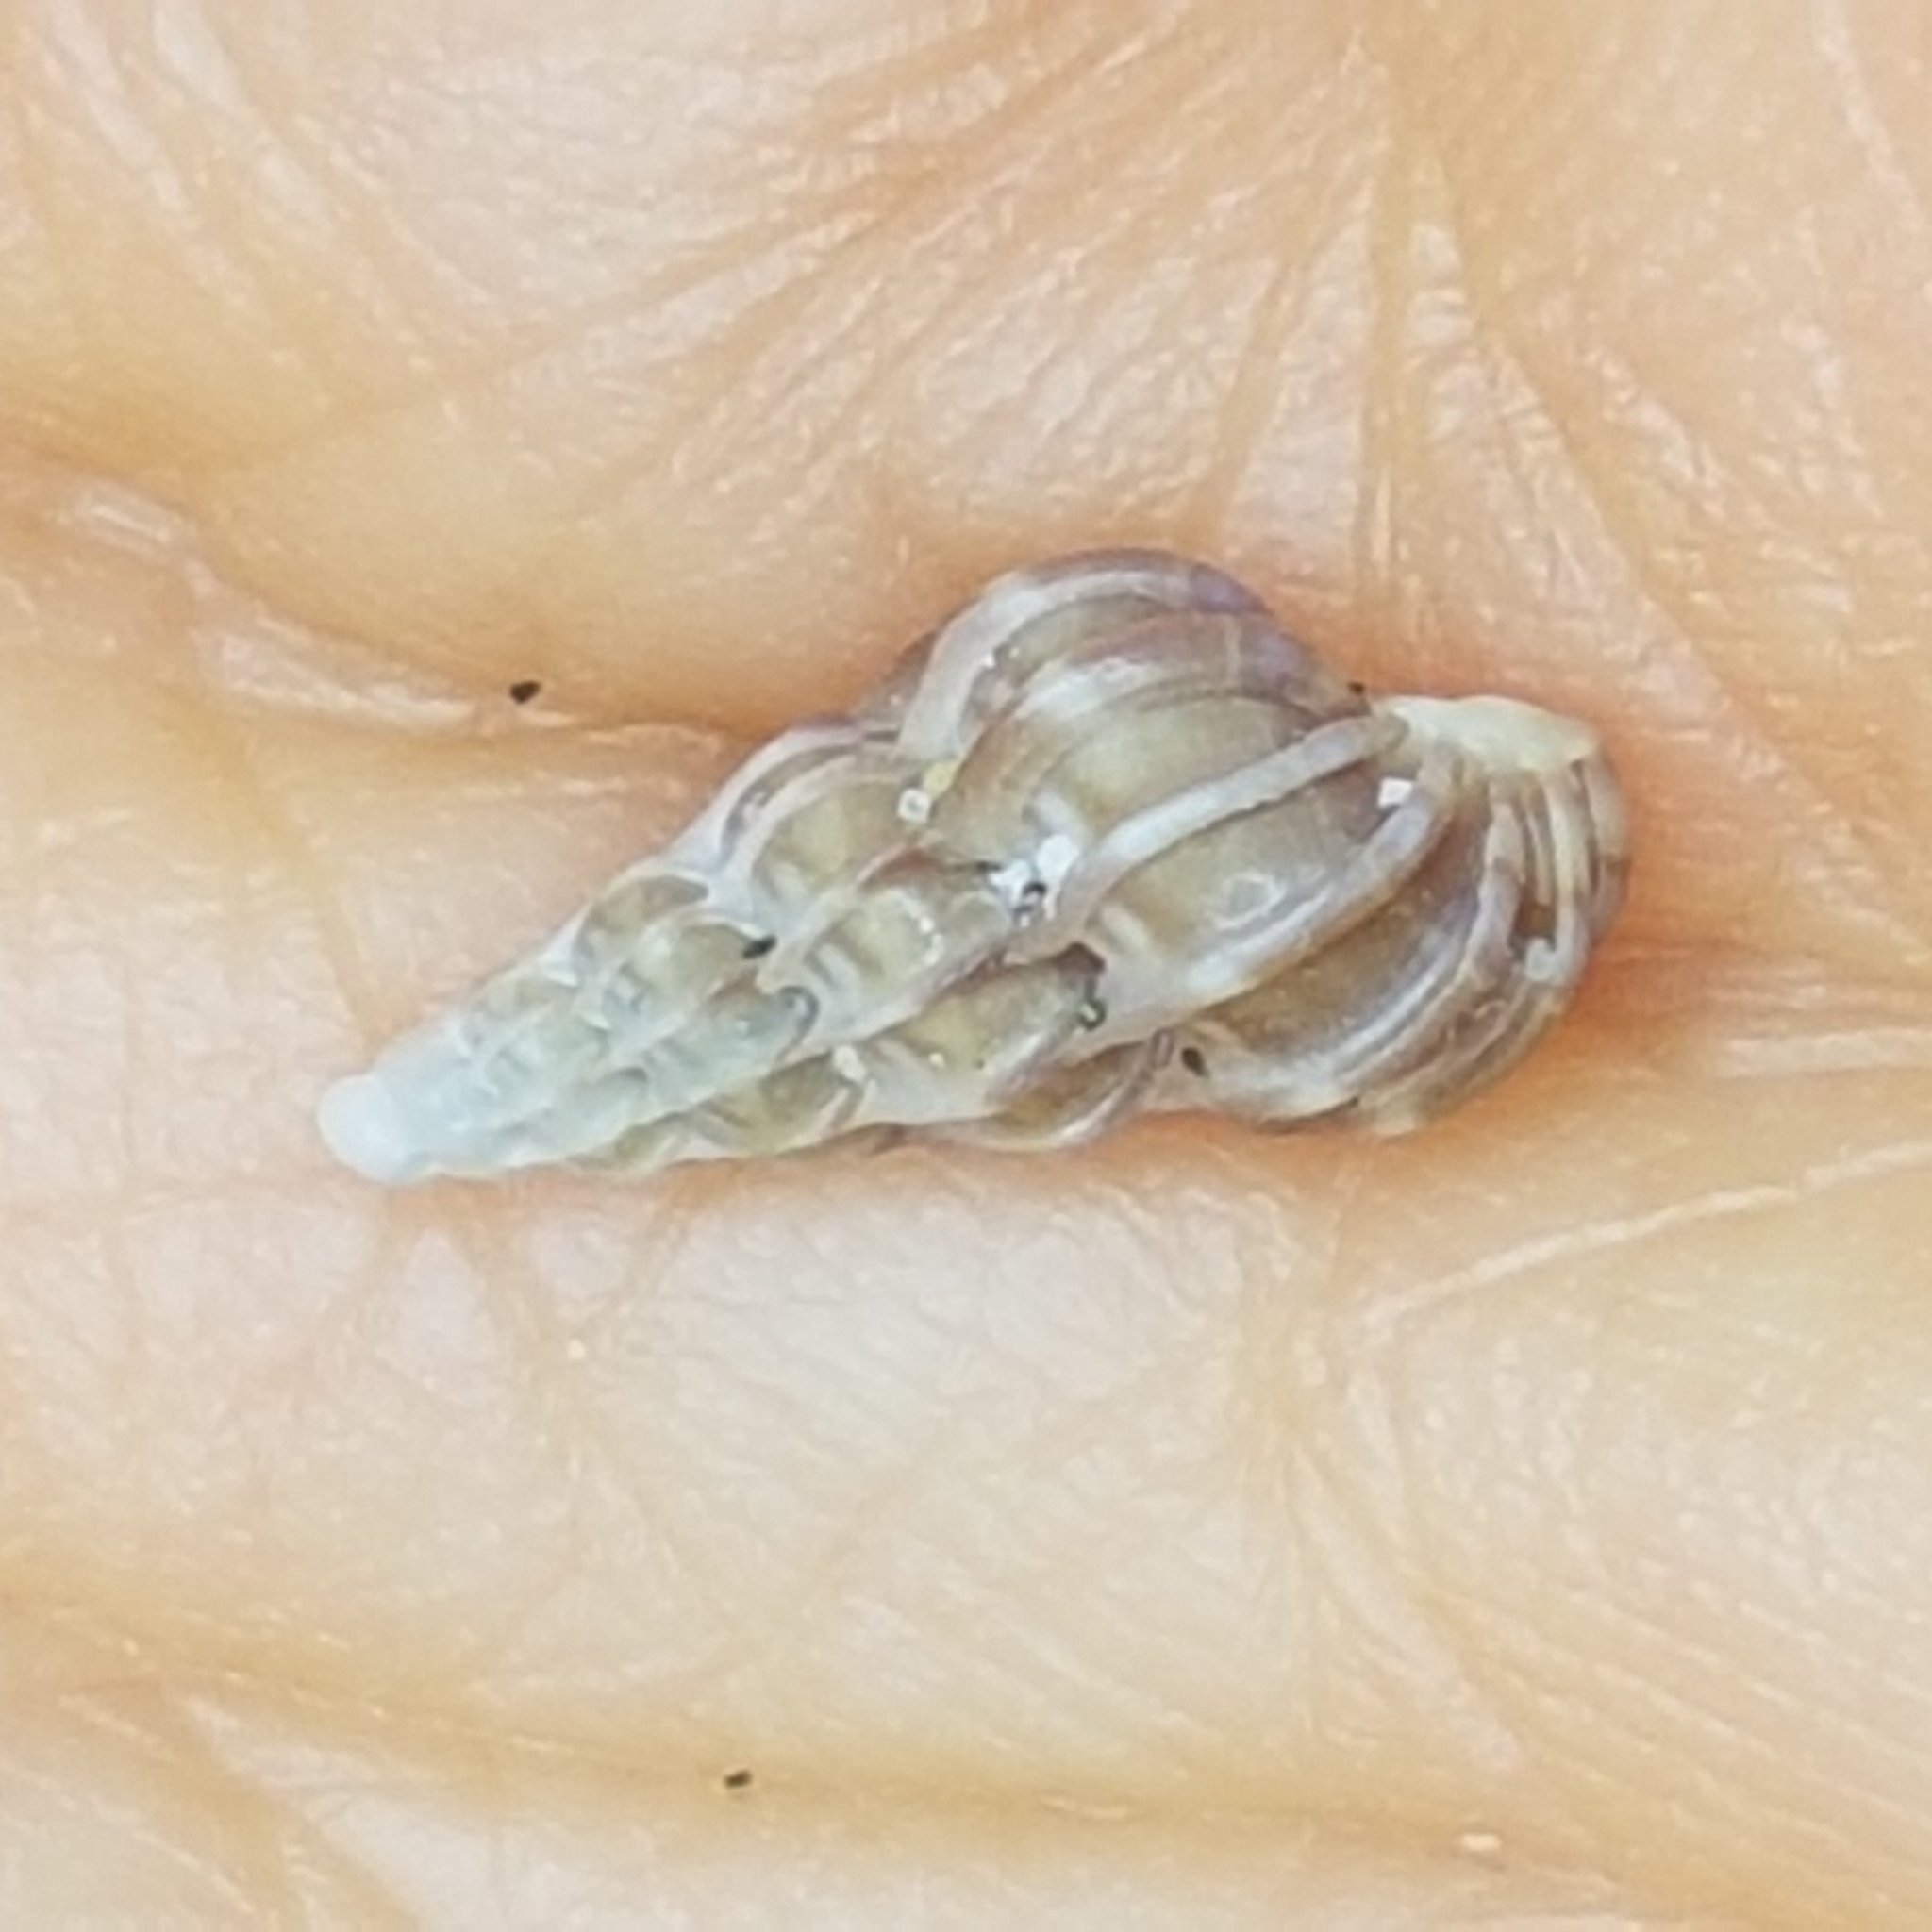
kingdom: Animalia
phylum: Mollusca
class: Gastropoda
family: Epitoniidae
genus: Epitonium
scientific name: Epitonium clathrus
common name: Common wentletrap
